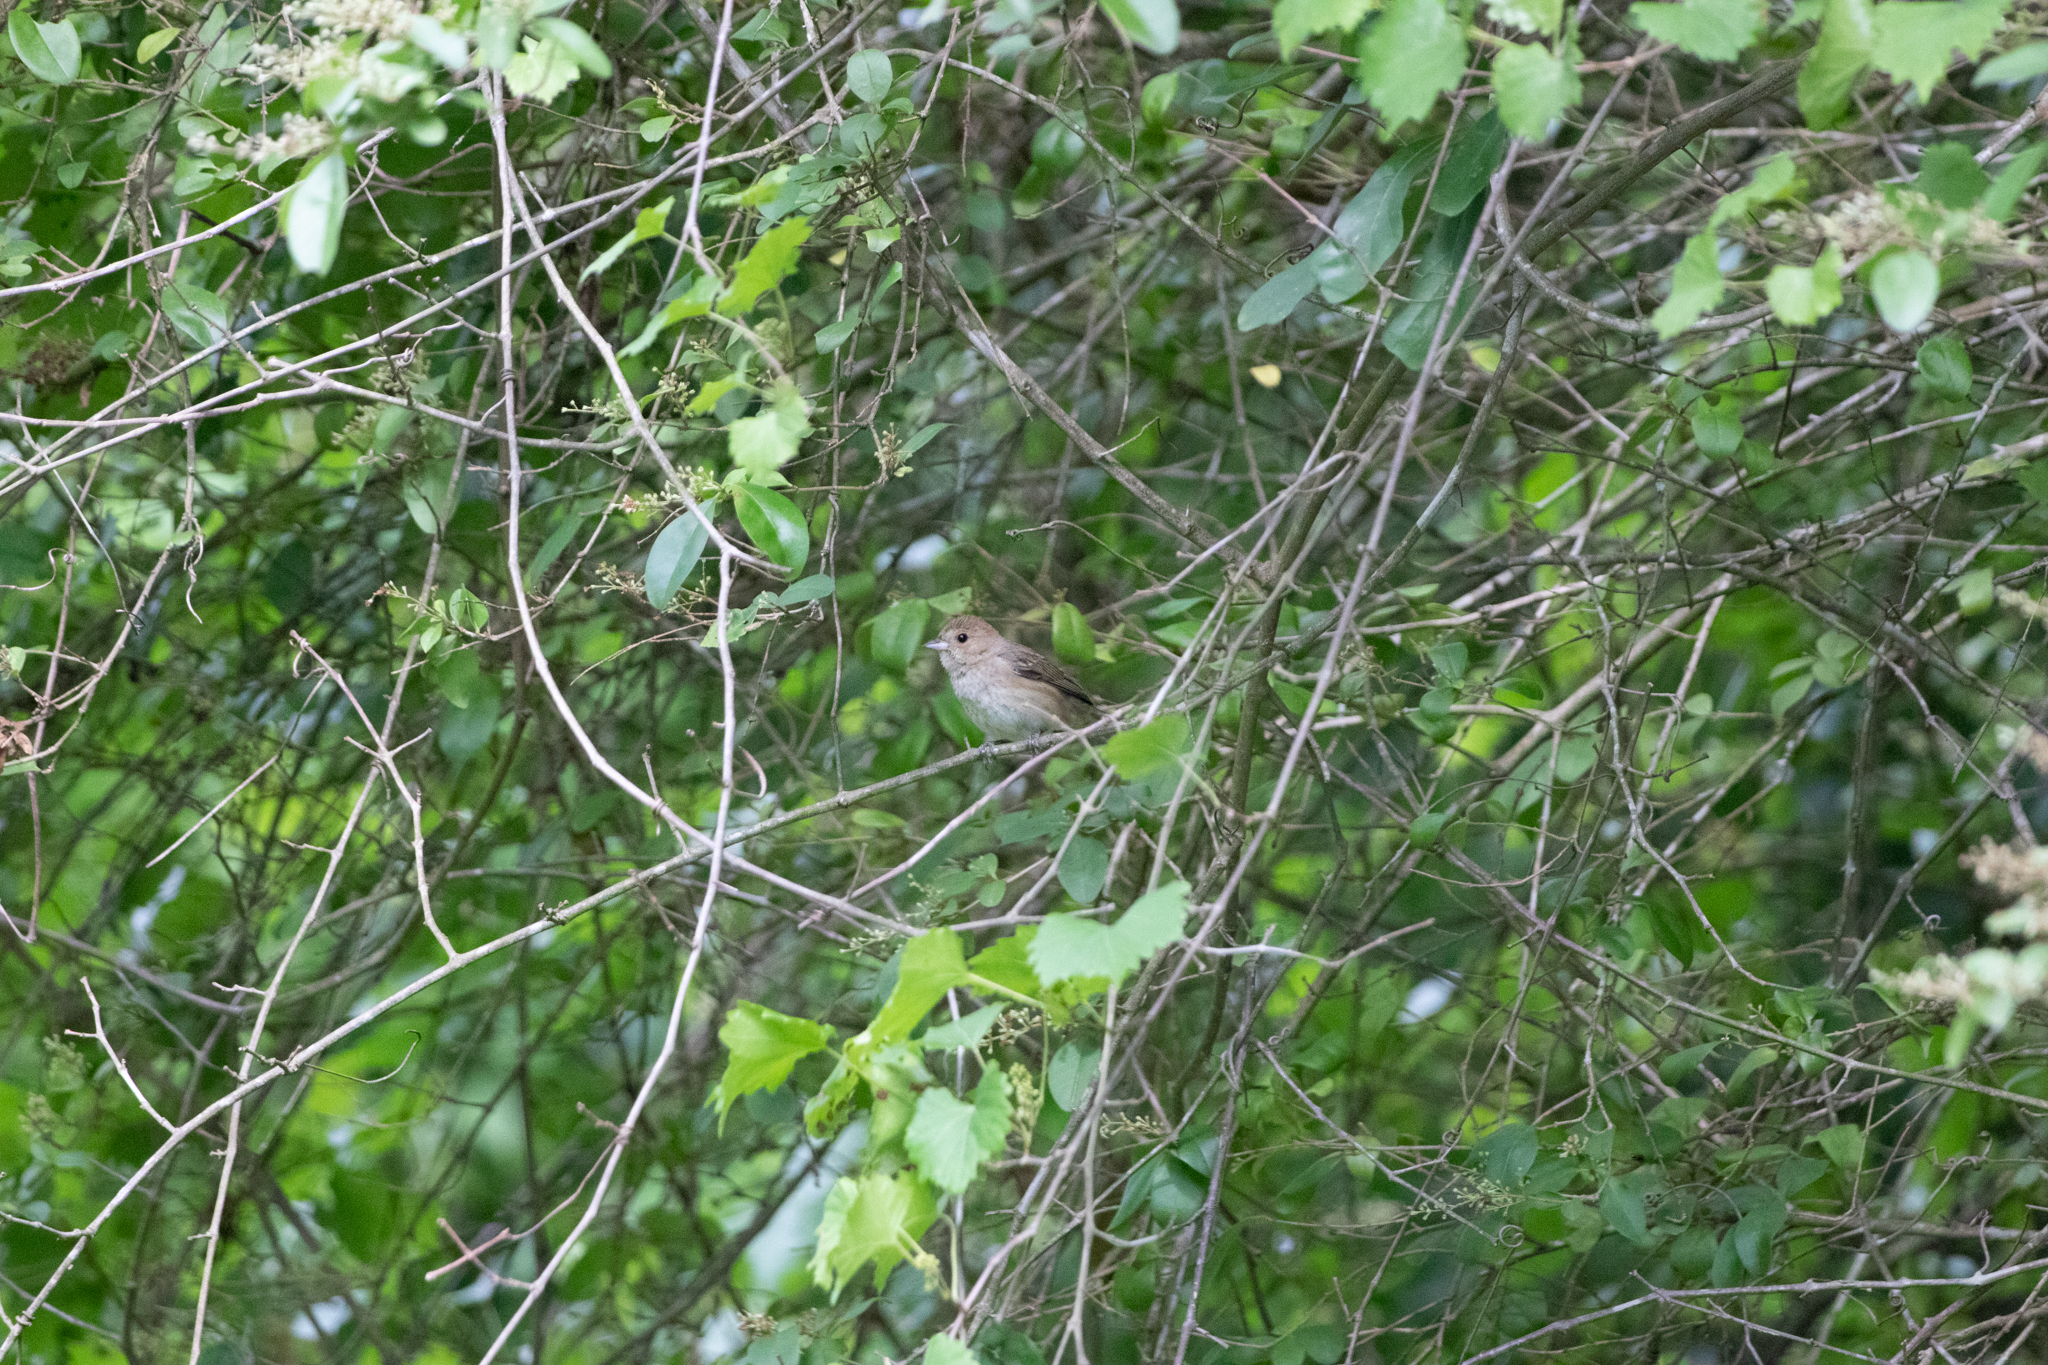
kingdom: Animalia
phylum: Chordata
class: Aves
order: Passeriformes
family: Cardinalidae
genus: Passerina
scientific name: Passerina cyanea
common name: Indigo bunting
